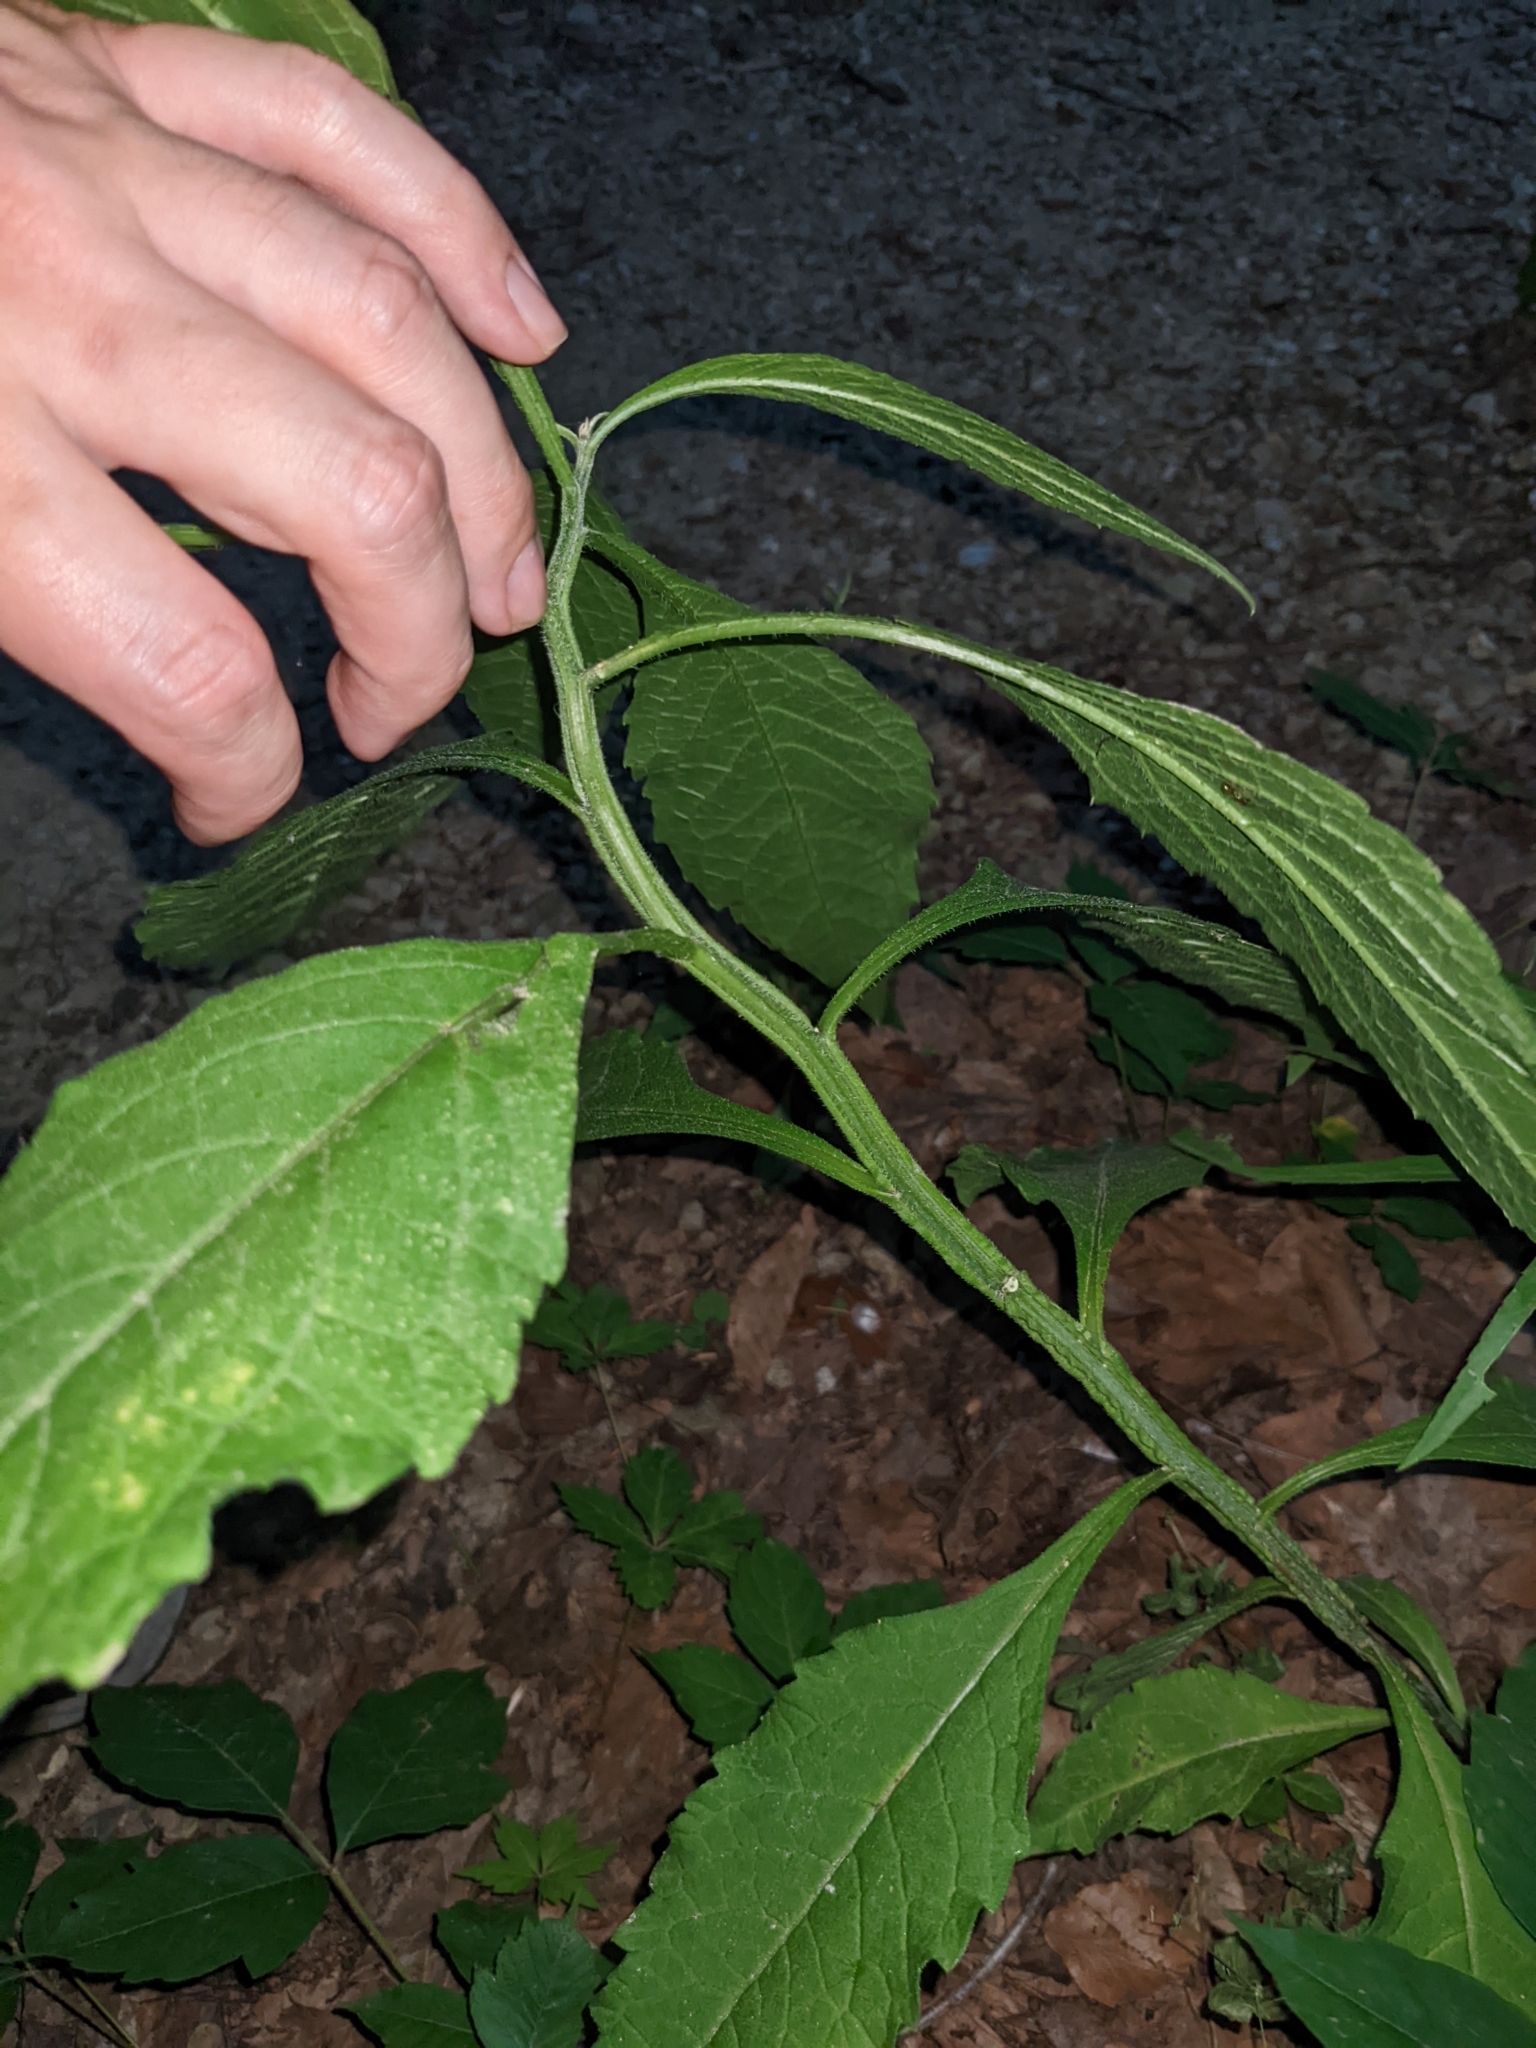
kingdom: Plantae
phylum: Tracheophyta
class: Magnoliopsida
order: Asterales
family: Asteraceae
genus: Verbesina
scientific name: Verbesina alternifolia
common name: Wingstem
